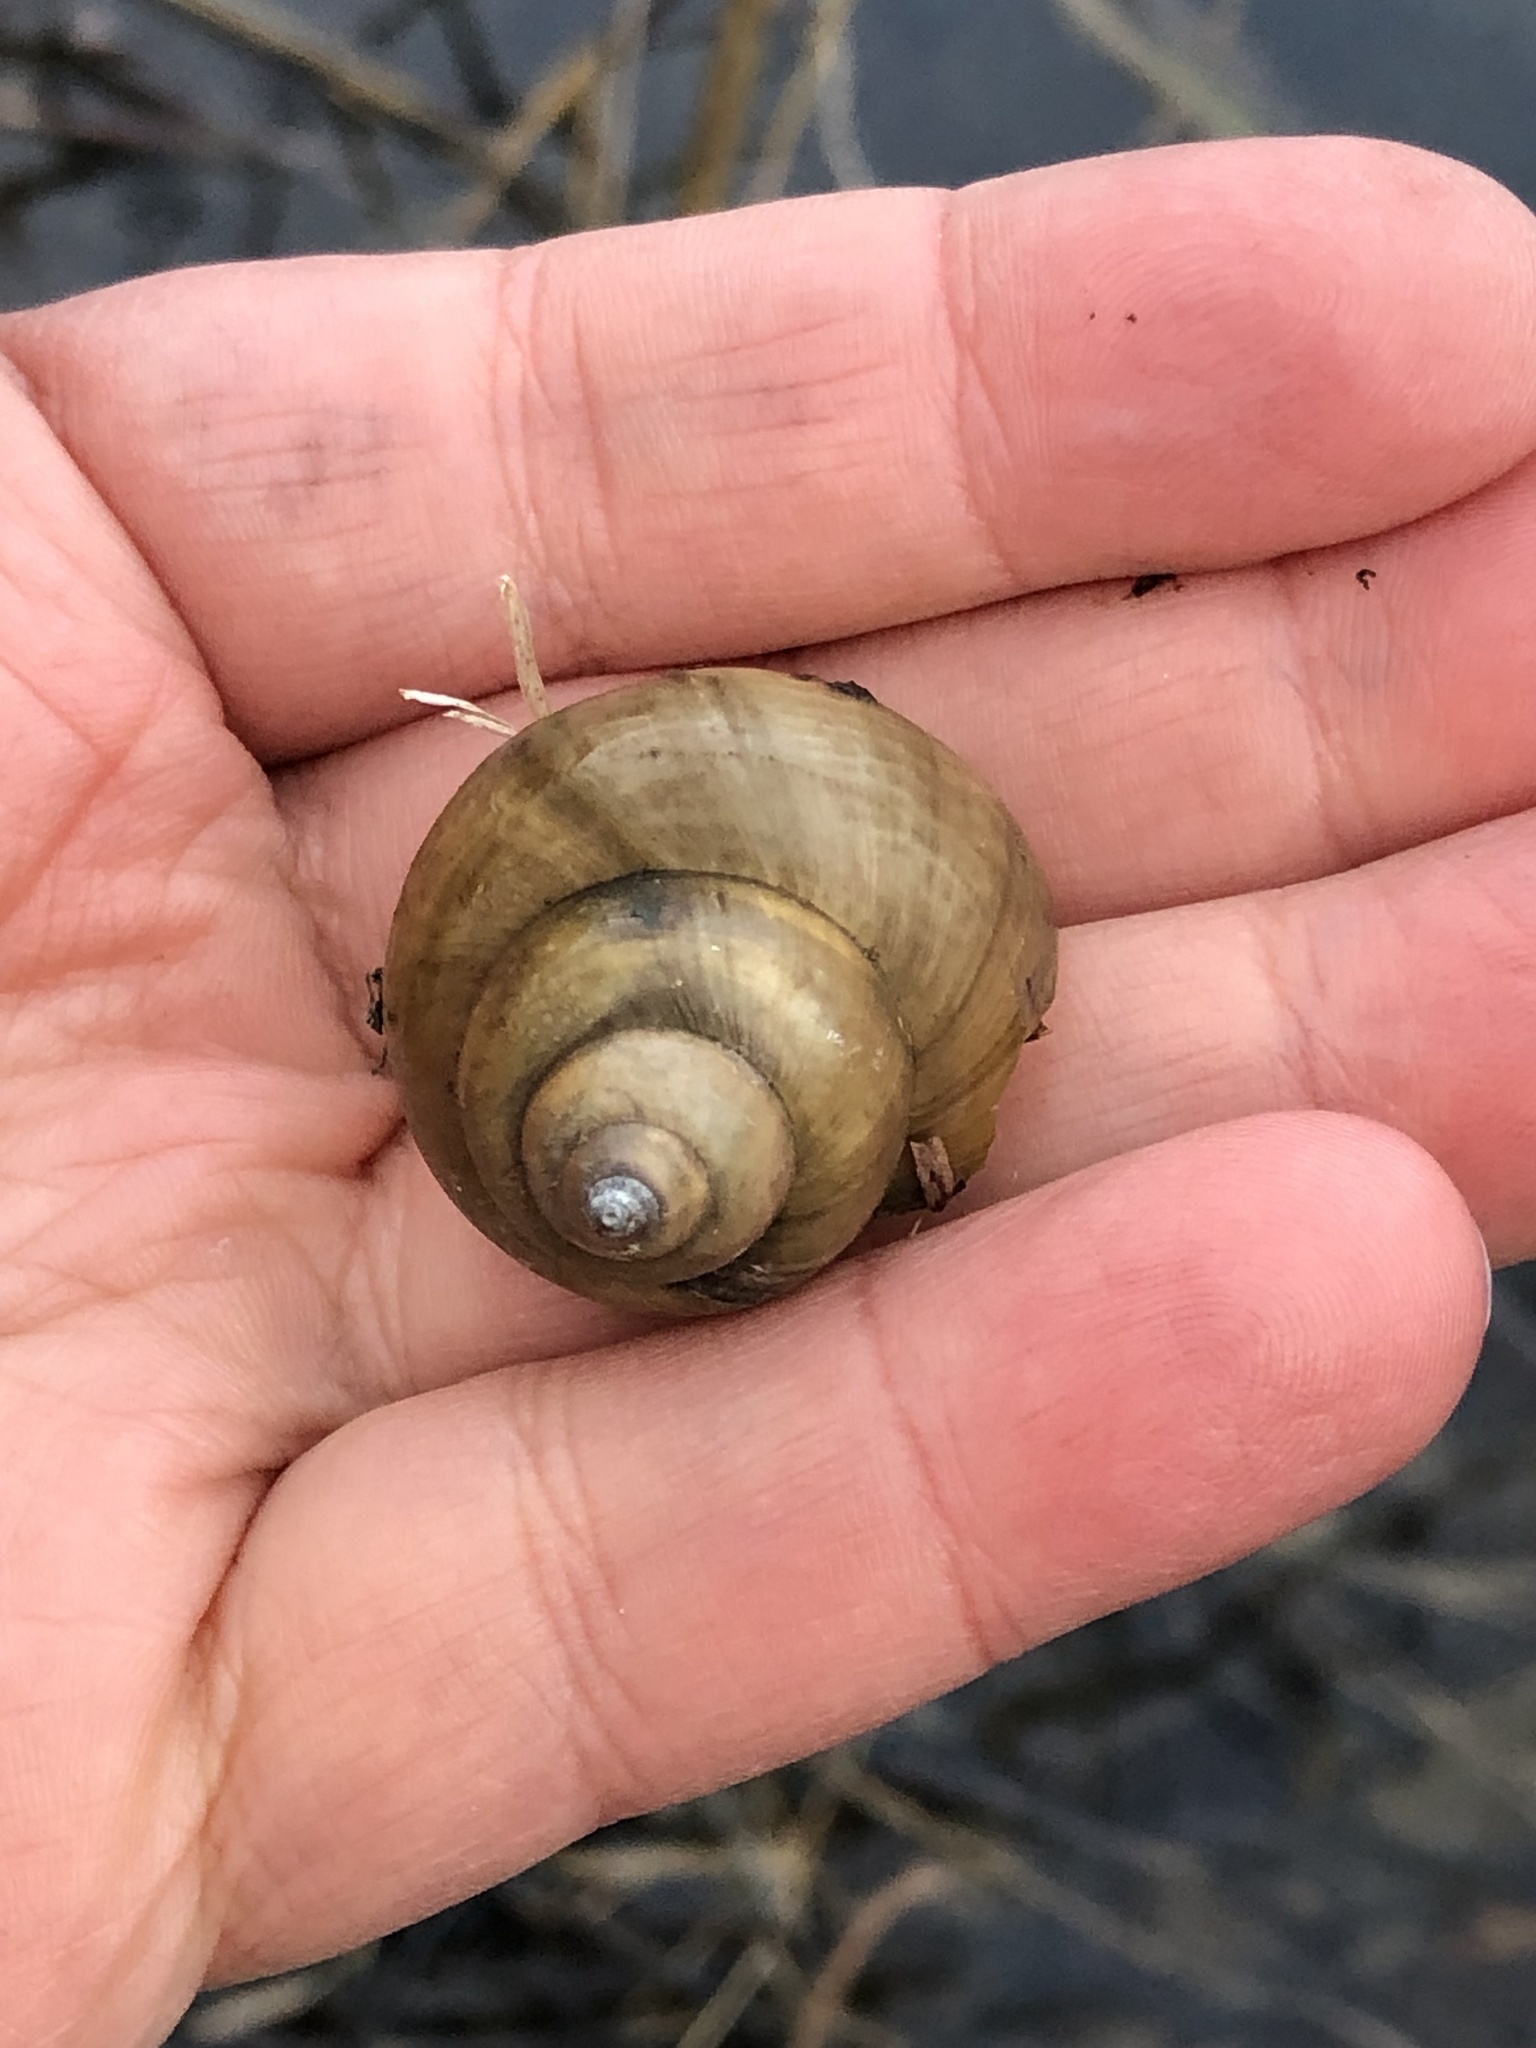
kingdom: Animalia
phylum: Mollusca
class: Gastropoda
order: Architaenioglossa
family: Viviparidae
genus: Cipangopaludina
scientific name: Cipangopaludina chinensis
